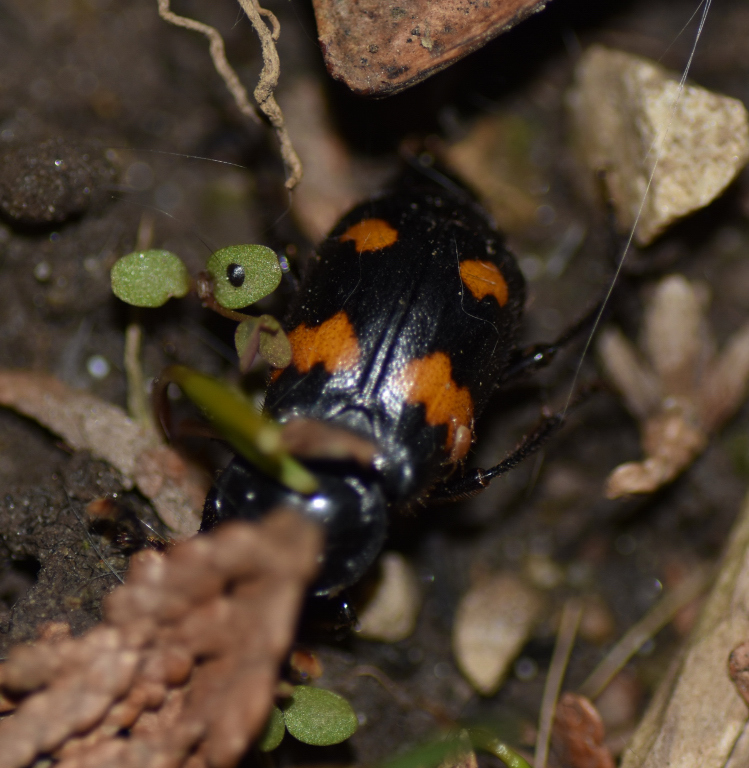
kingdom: Animalia
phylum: Arthropoda
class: Insecta
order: Coleoptera
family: Staphylinidae
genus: Nicrophorus
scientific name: Nicrophorus orbicollis
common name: Roundneck sexton beetle
